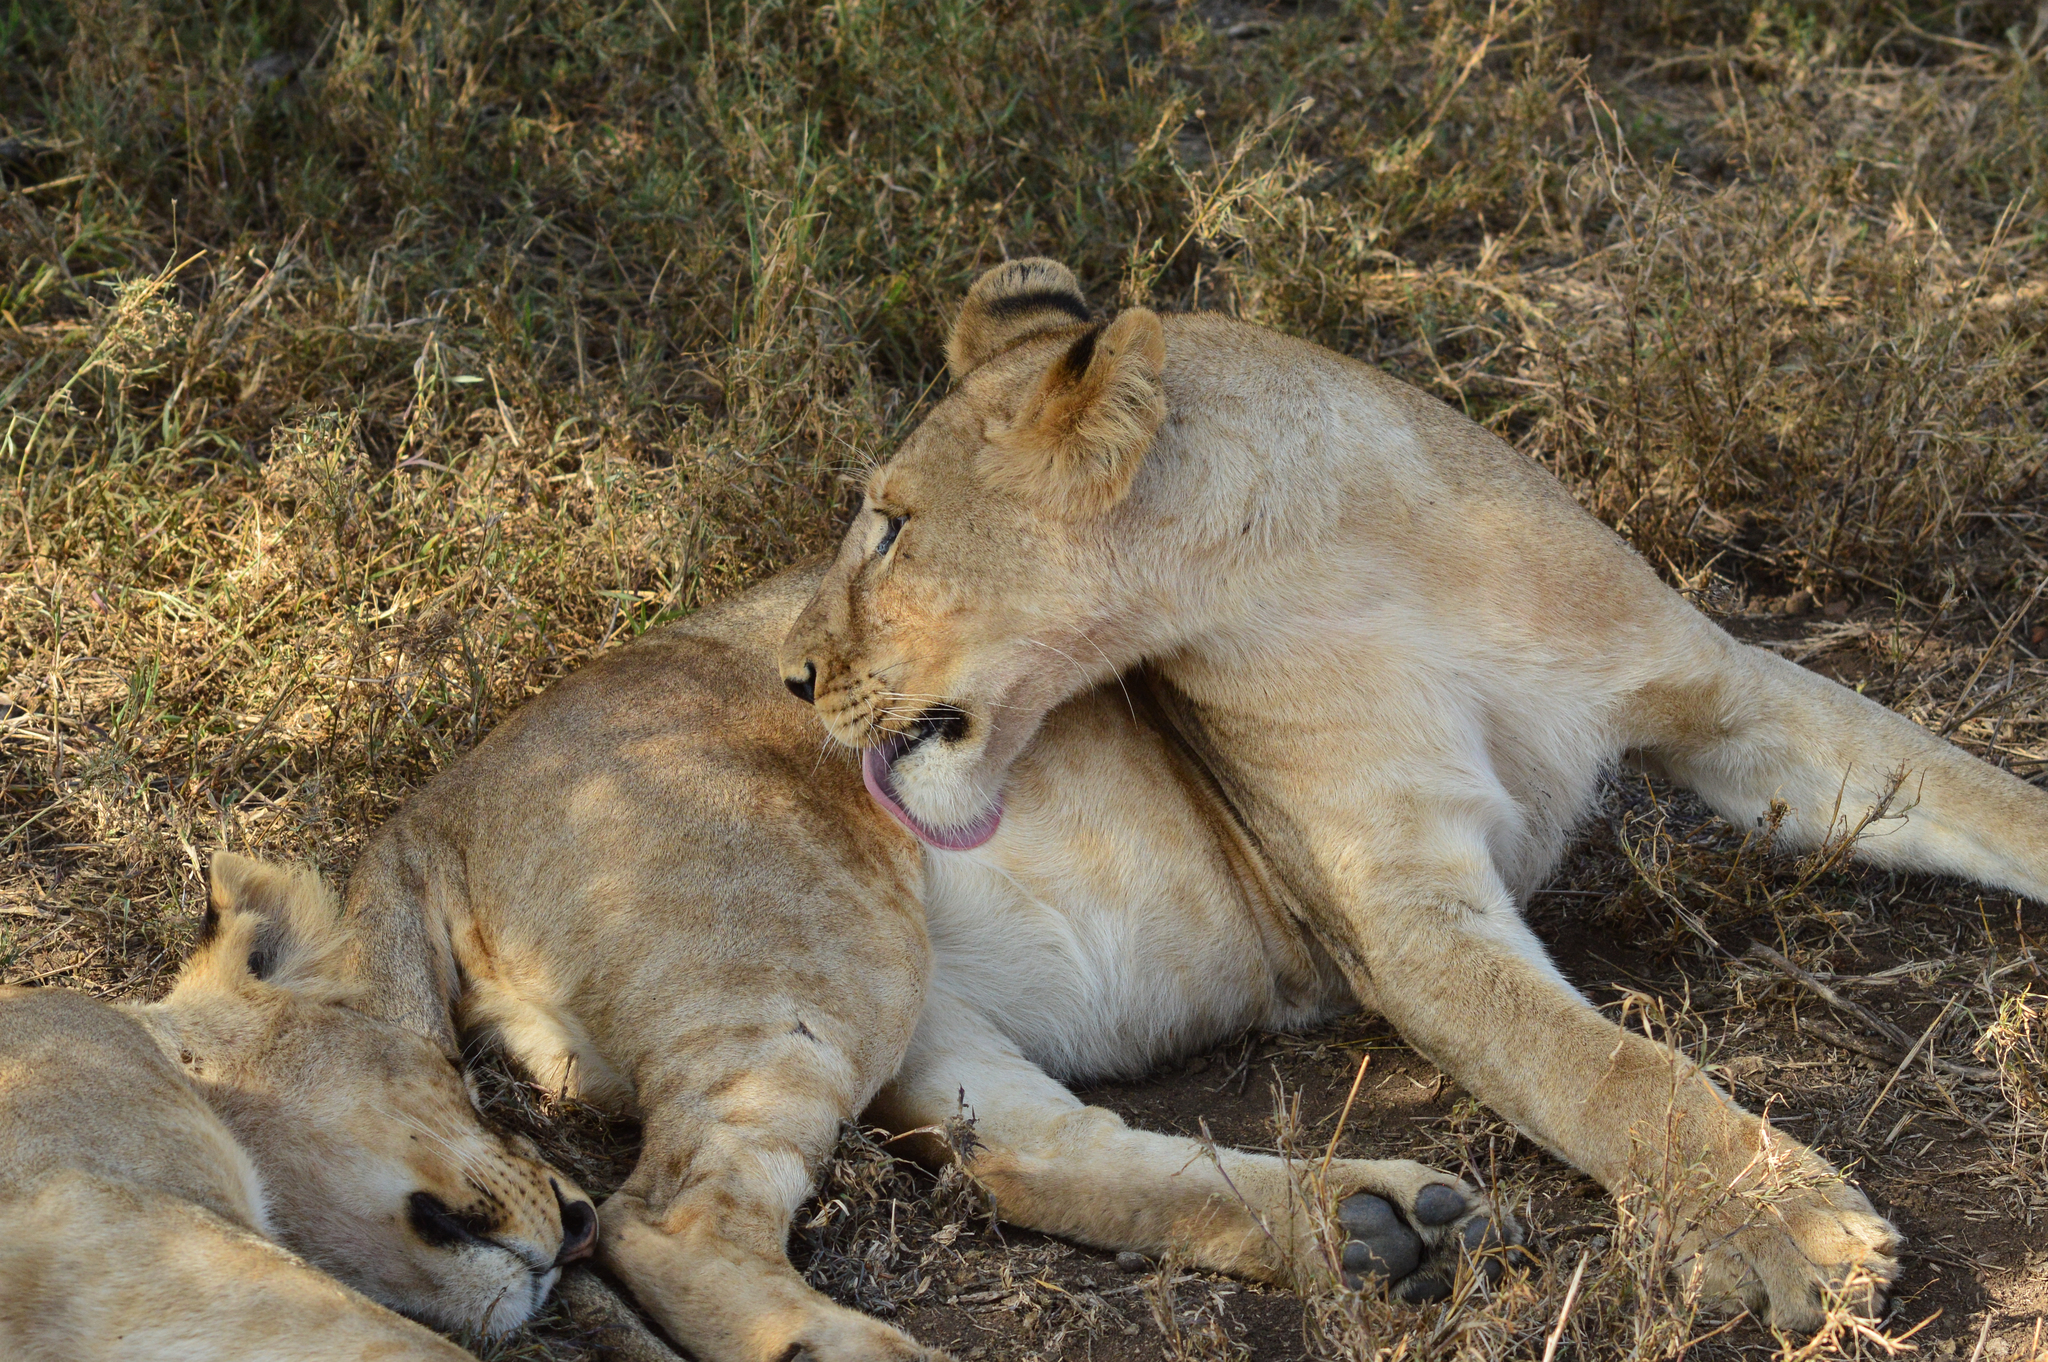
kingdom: Animalia
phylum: Chordata
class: Mammalia
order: Carnivora
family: Felidae
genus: Panthera
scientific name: Panthera leo
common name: Lion
